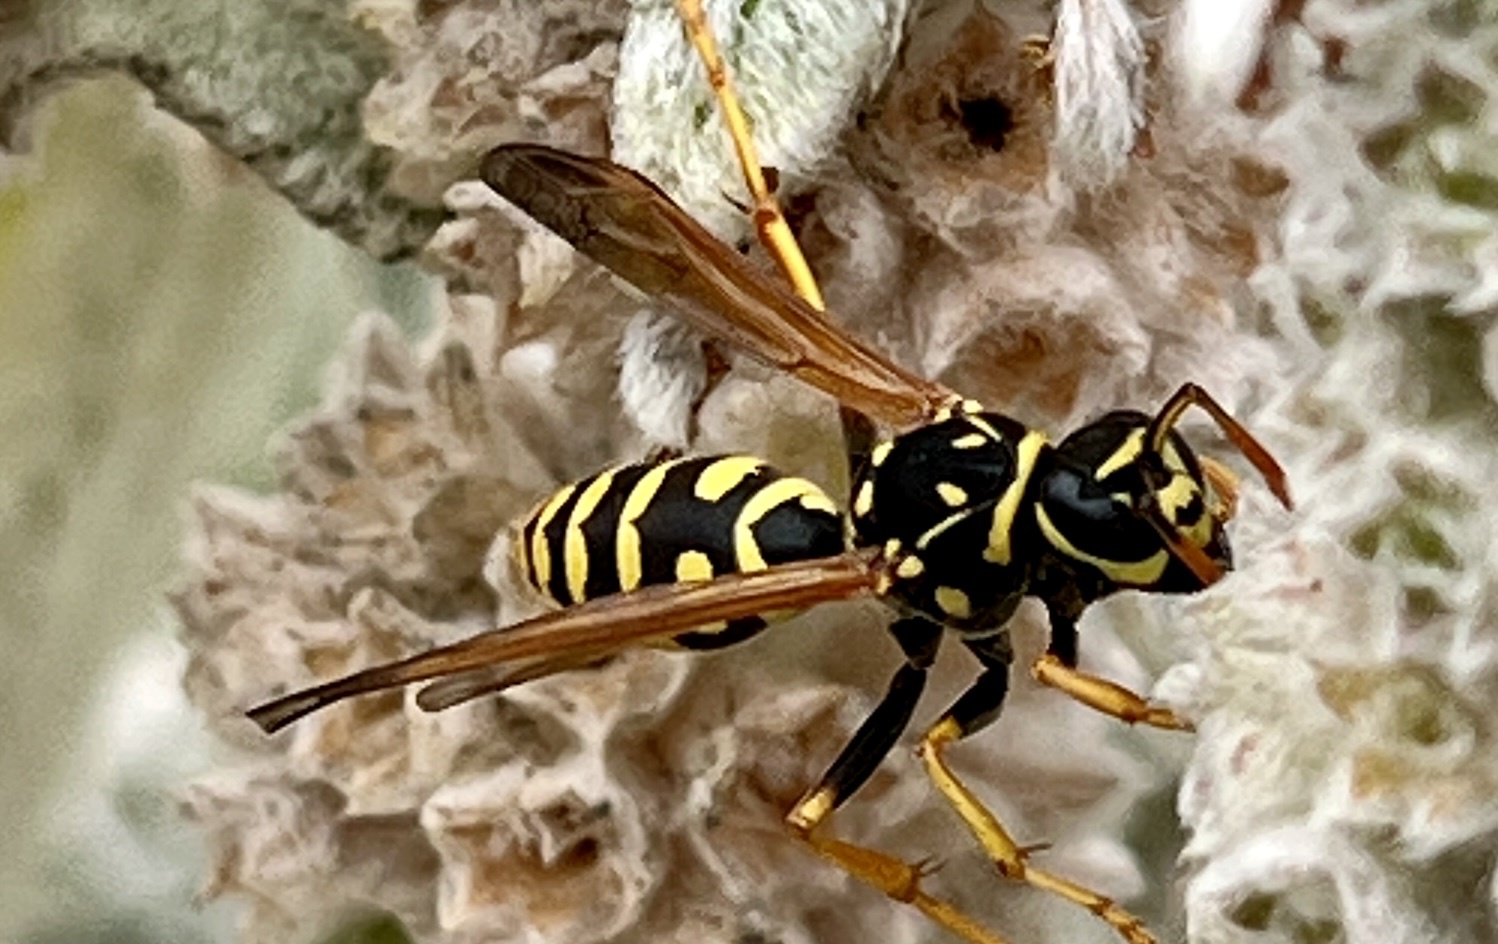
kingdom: Animalia
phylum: Arthropoda
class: Insecta
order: Hymenoptera
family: Eumenidae
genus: Polistes
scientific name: Polistes dominula
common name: Paper wasp
